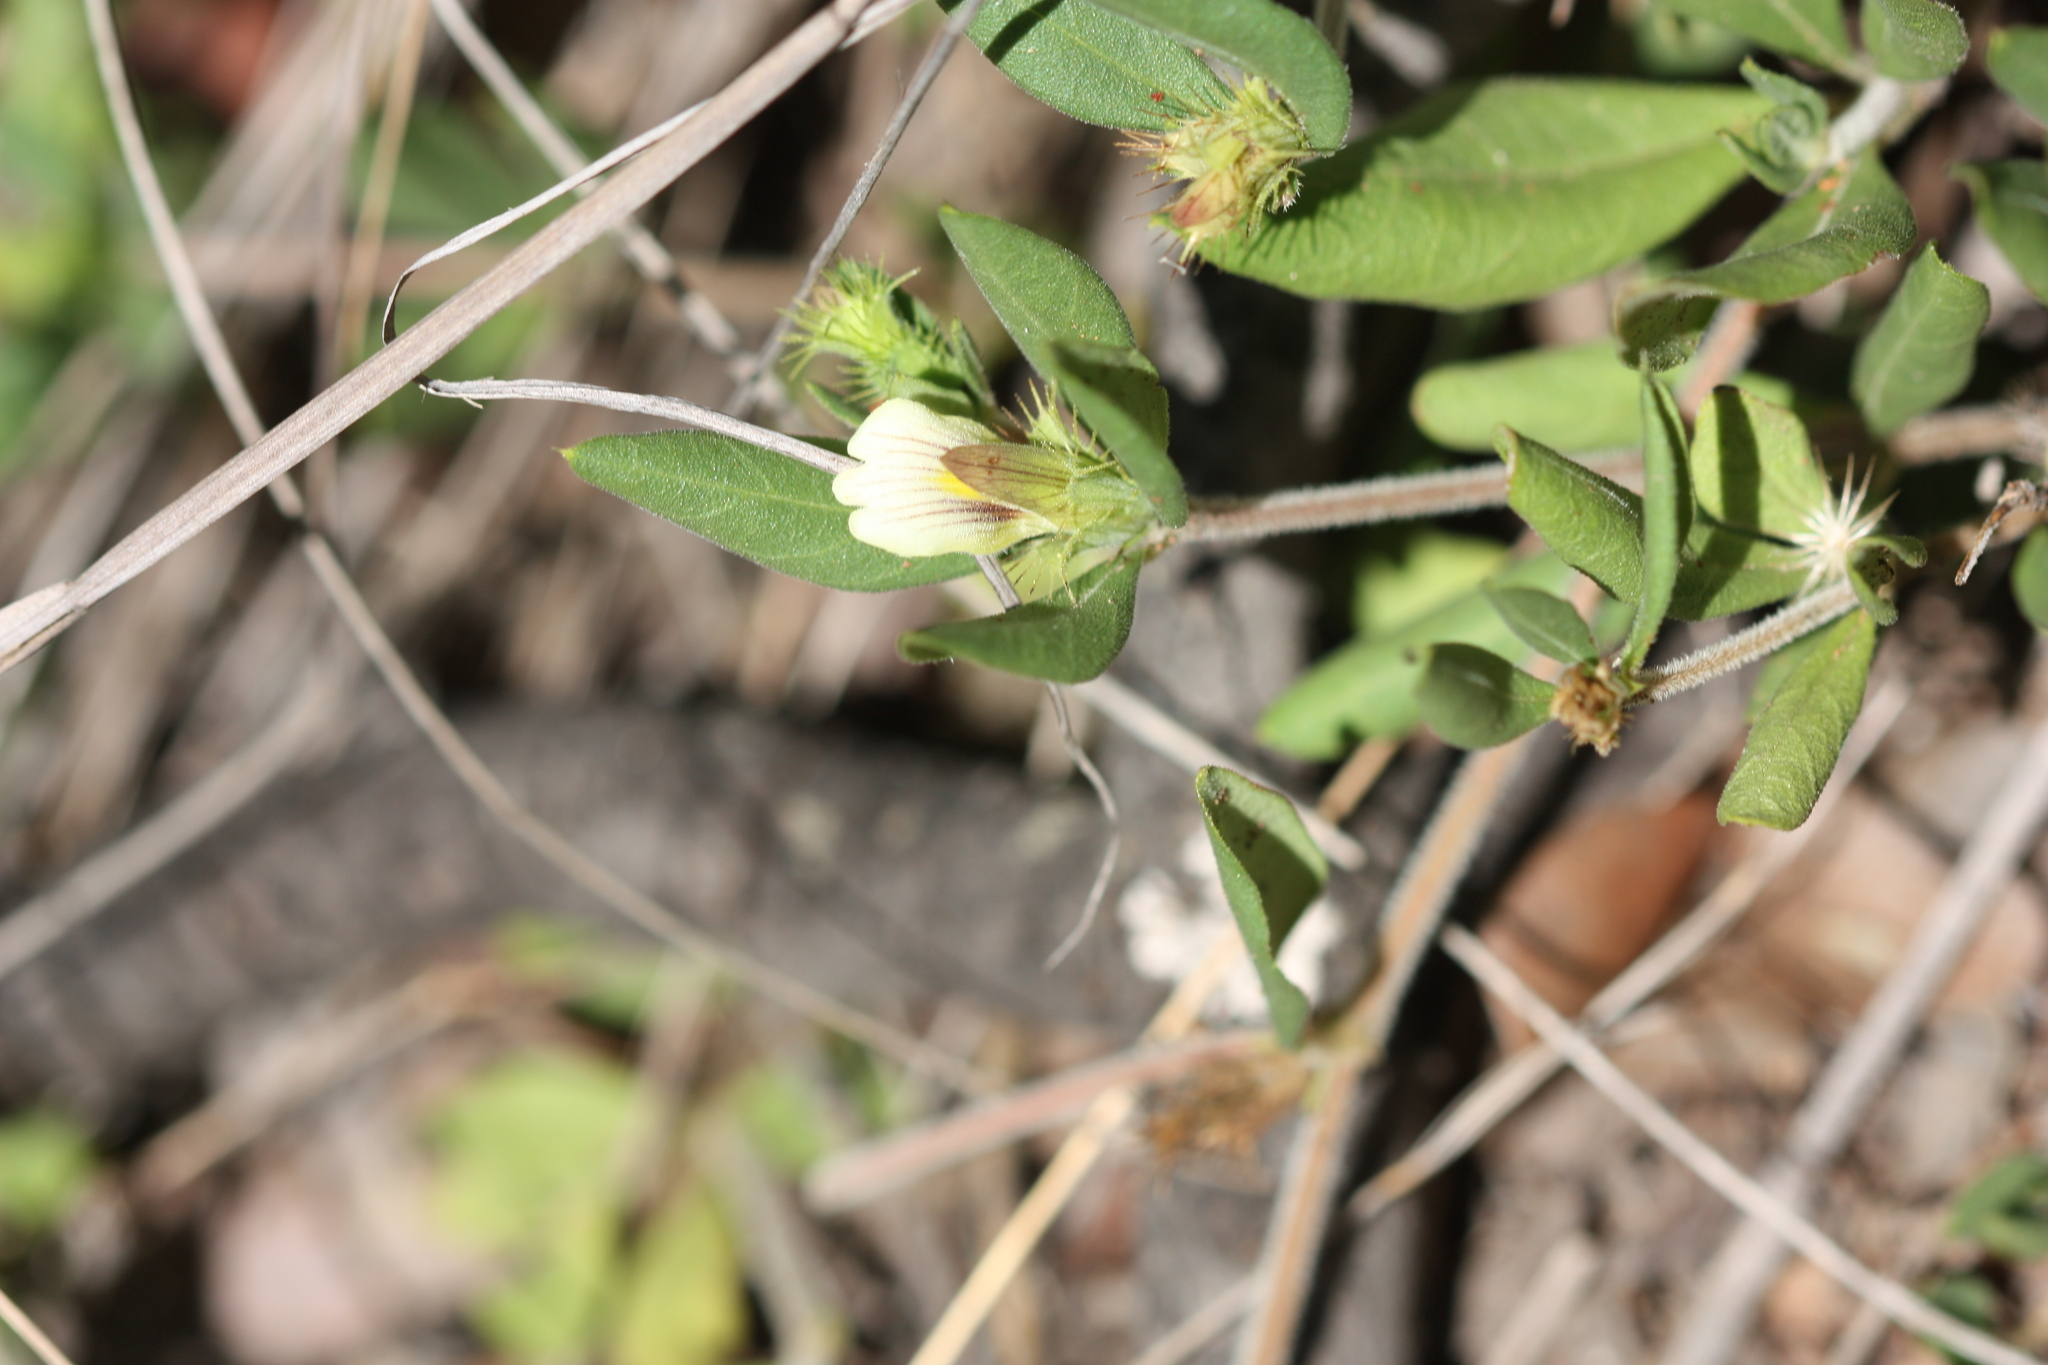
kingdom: Plantae
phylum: Tracheophyta
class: Magnoliopsida
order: Lamiales
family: Acanthaceae
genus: Blepharis
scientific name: Blepharis maderaspatensis
